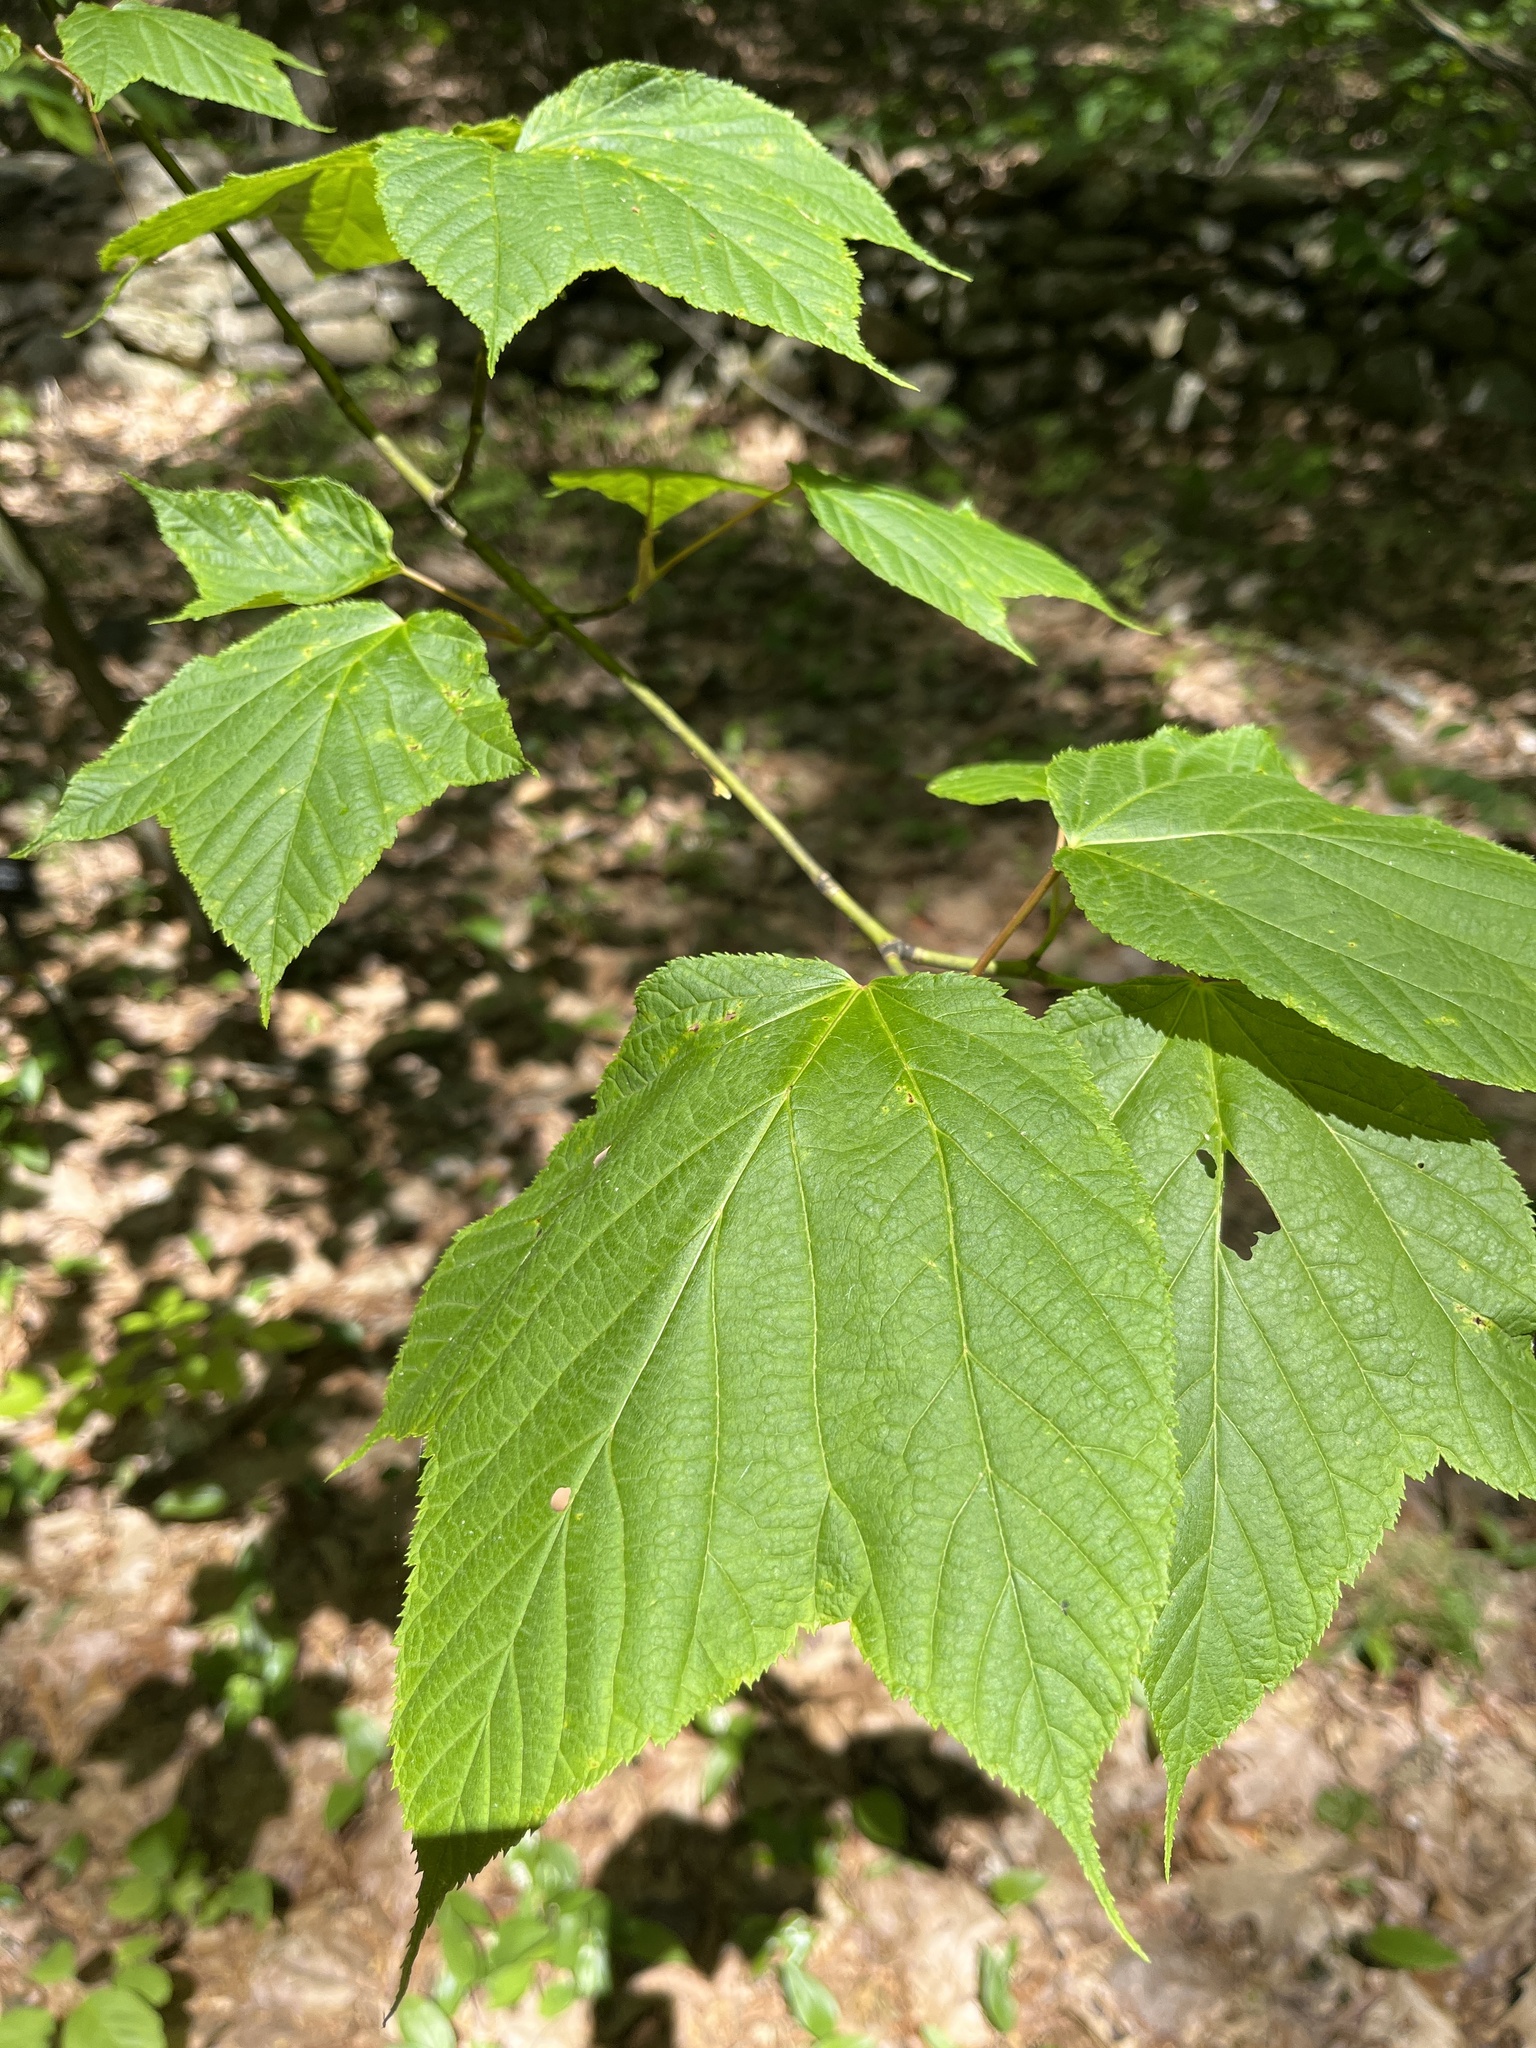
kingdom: Plantae
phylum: Tracheophyta
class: Magnoliopsida
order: Sapindales
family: Sapindaceae
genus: Acer
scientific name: Acer pensylvanicum
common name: Moosewood
